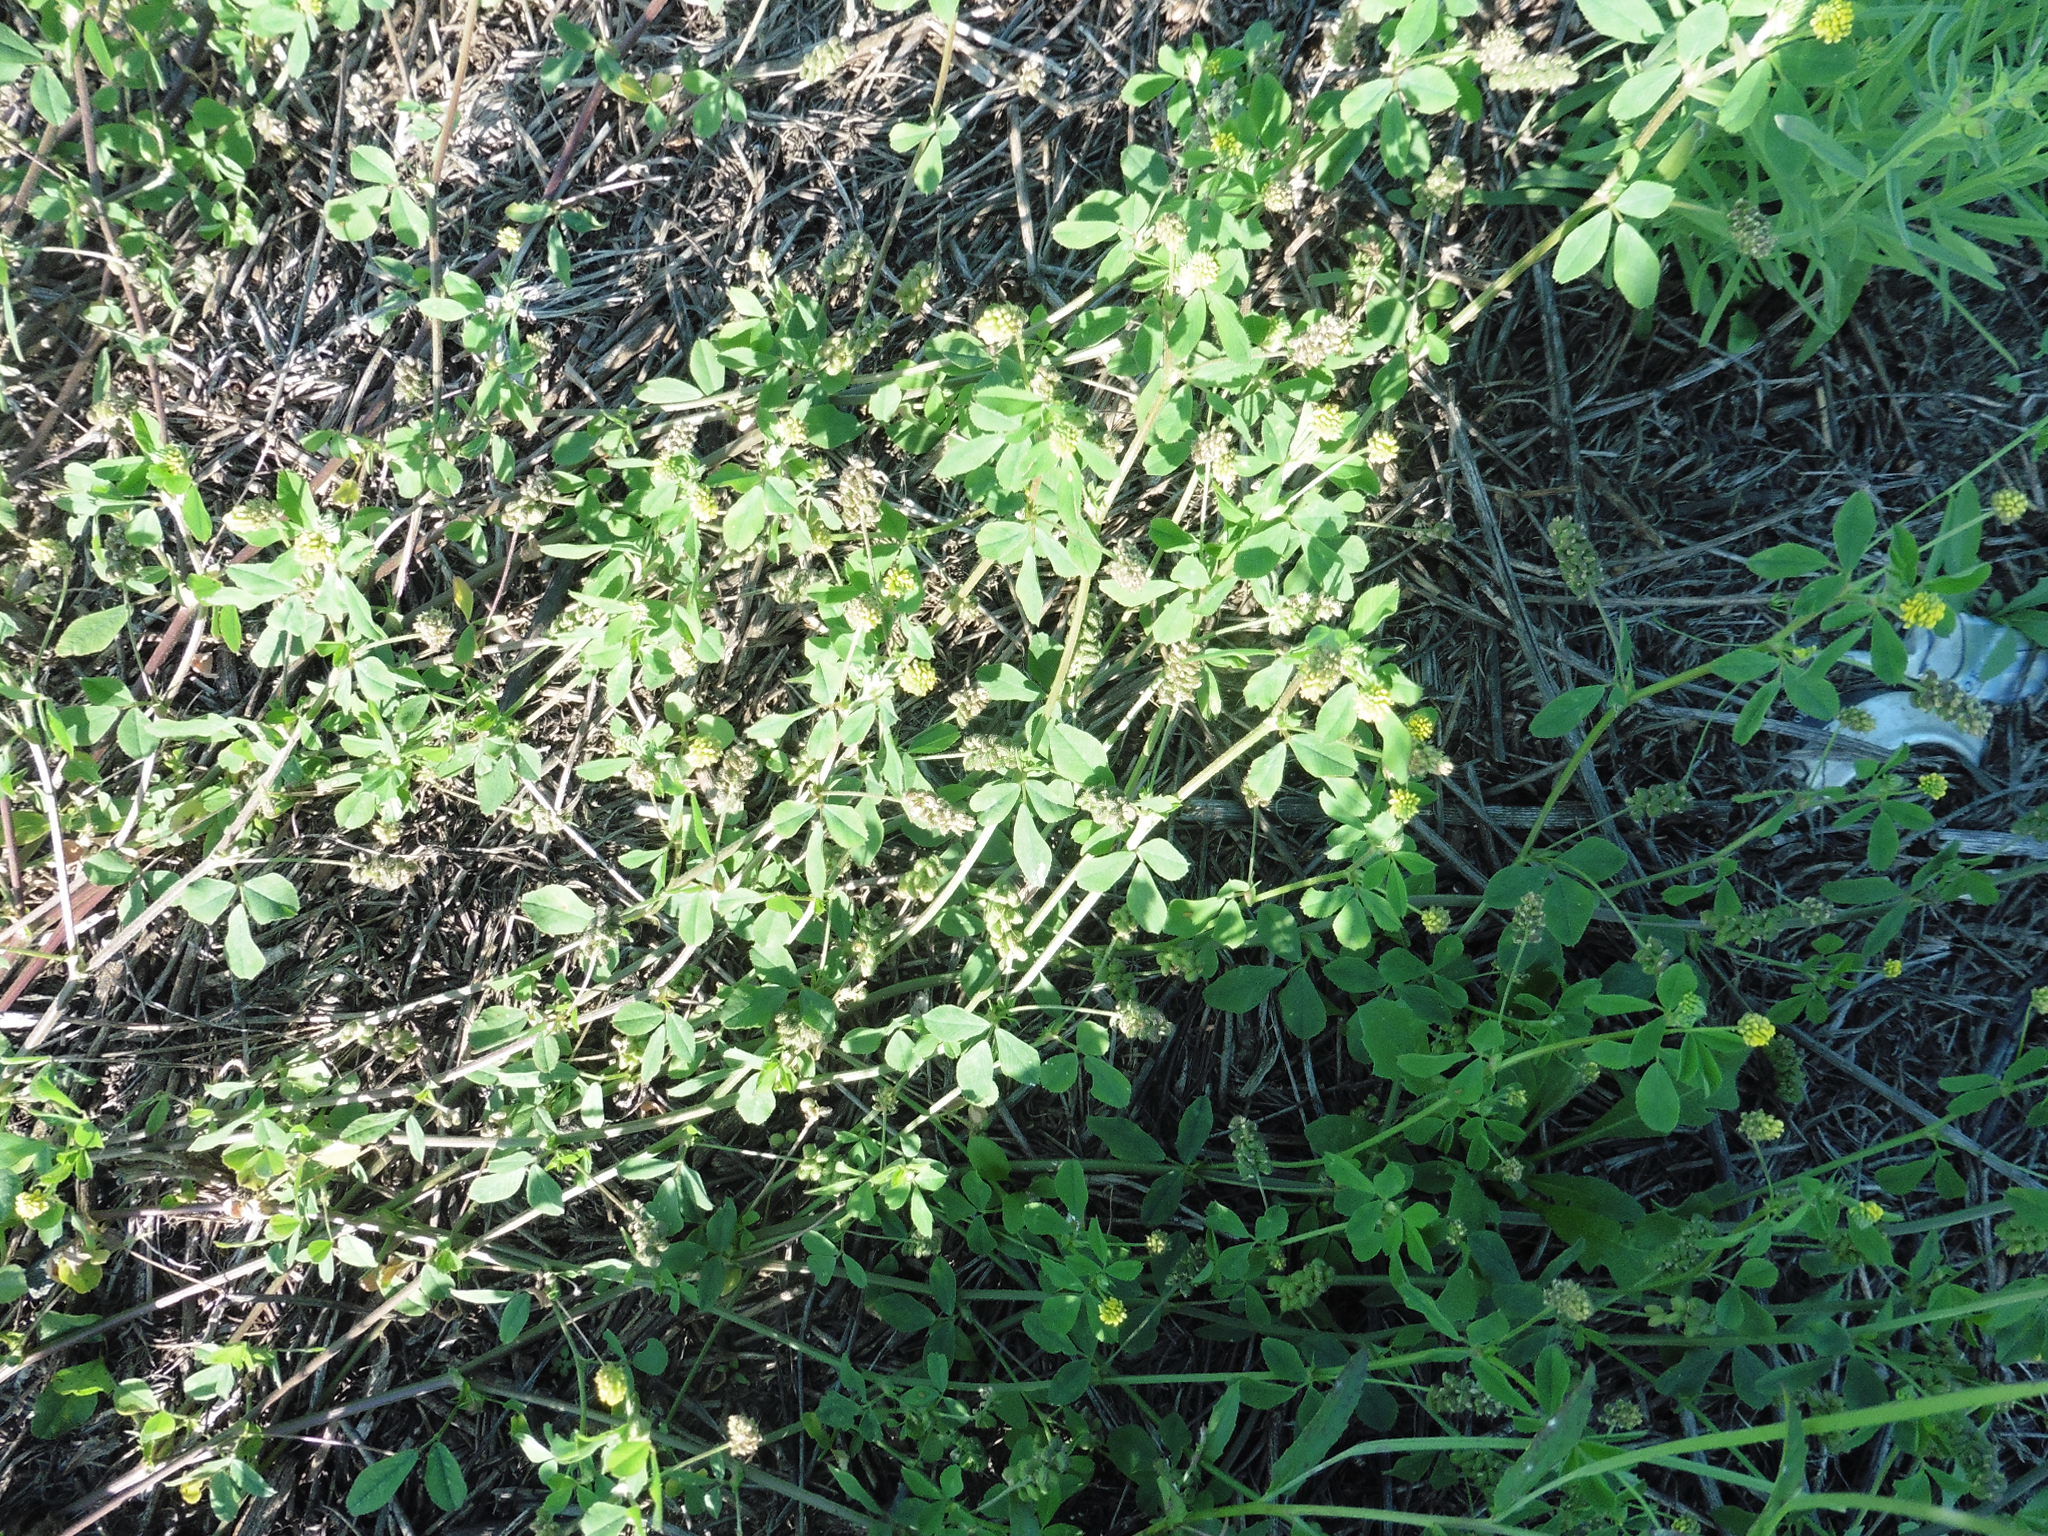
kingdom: Plantae
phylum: Tracheophyta
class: Magnoliopsida
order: Fabales
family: Fabaceae
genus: Medicago
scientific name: Medicago lupulina
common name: Black medick
